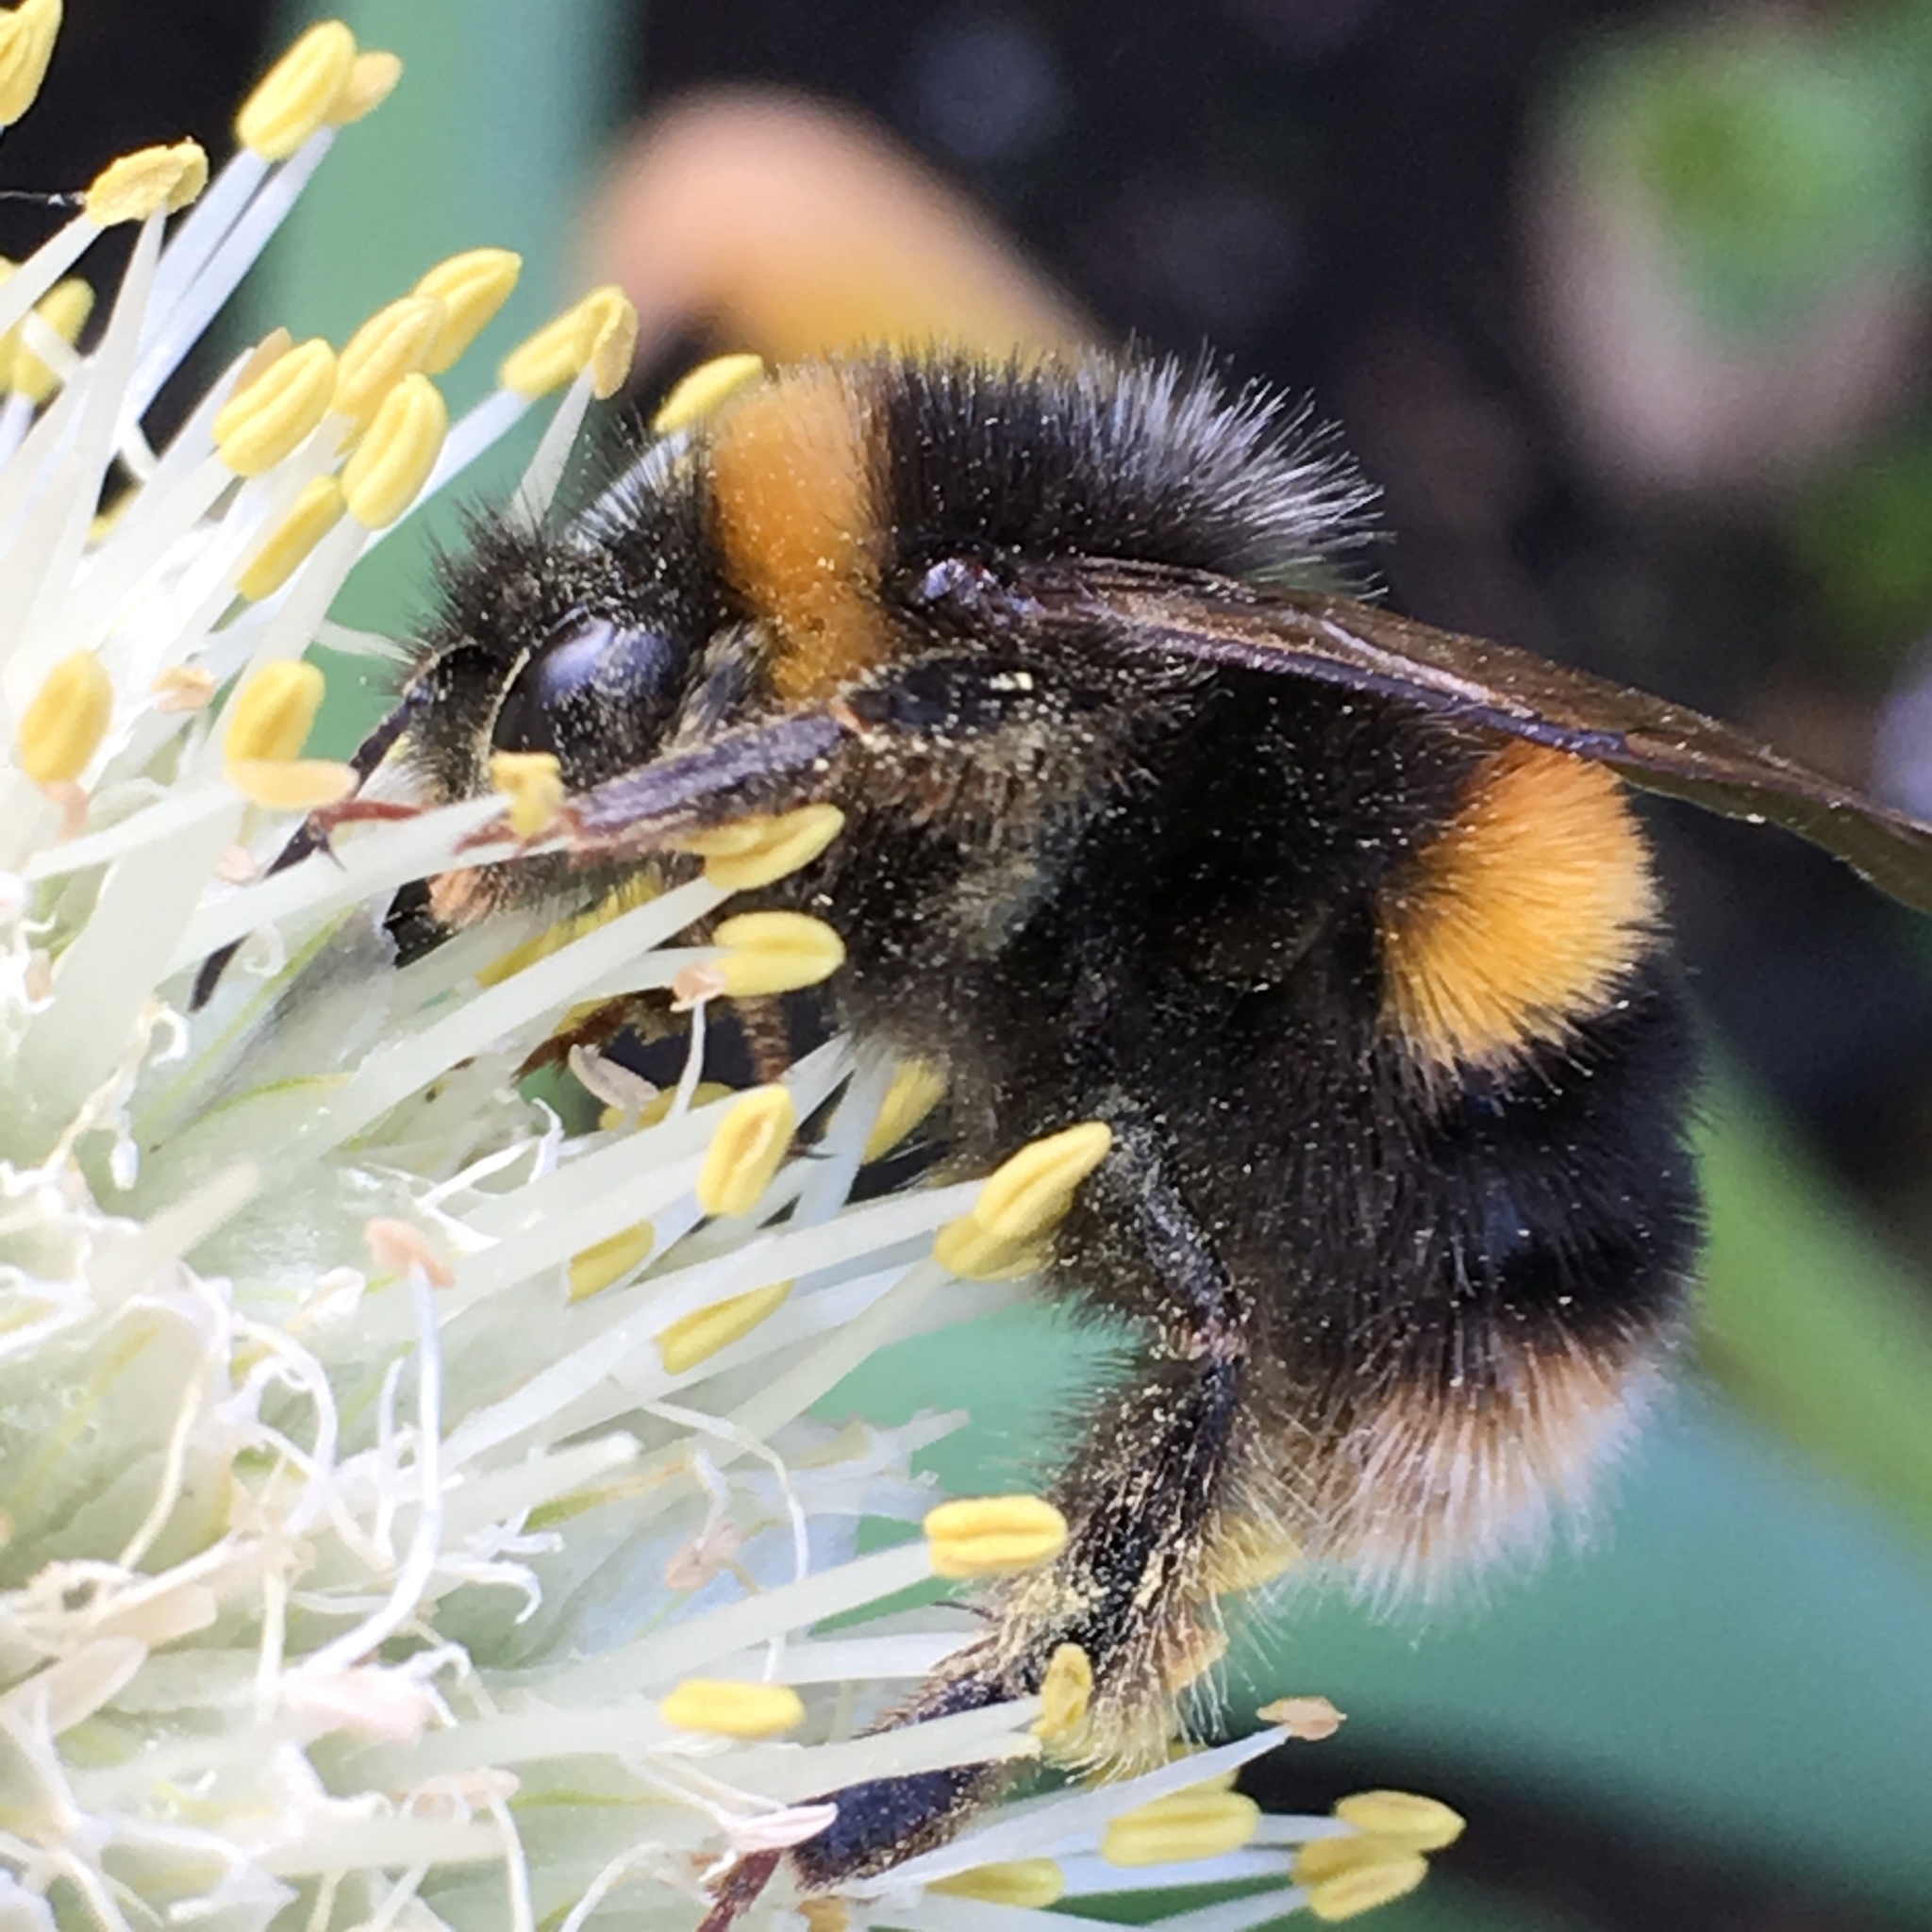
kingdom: Animalia
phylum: Arthropoda
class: Insecta
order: Hymenoptera
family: Apidae
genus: Bombus
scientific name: Bombus terrestris
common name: Buff-tailed bumblebee
